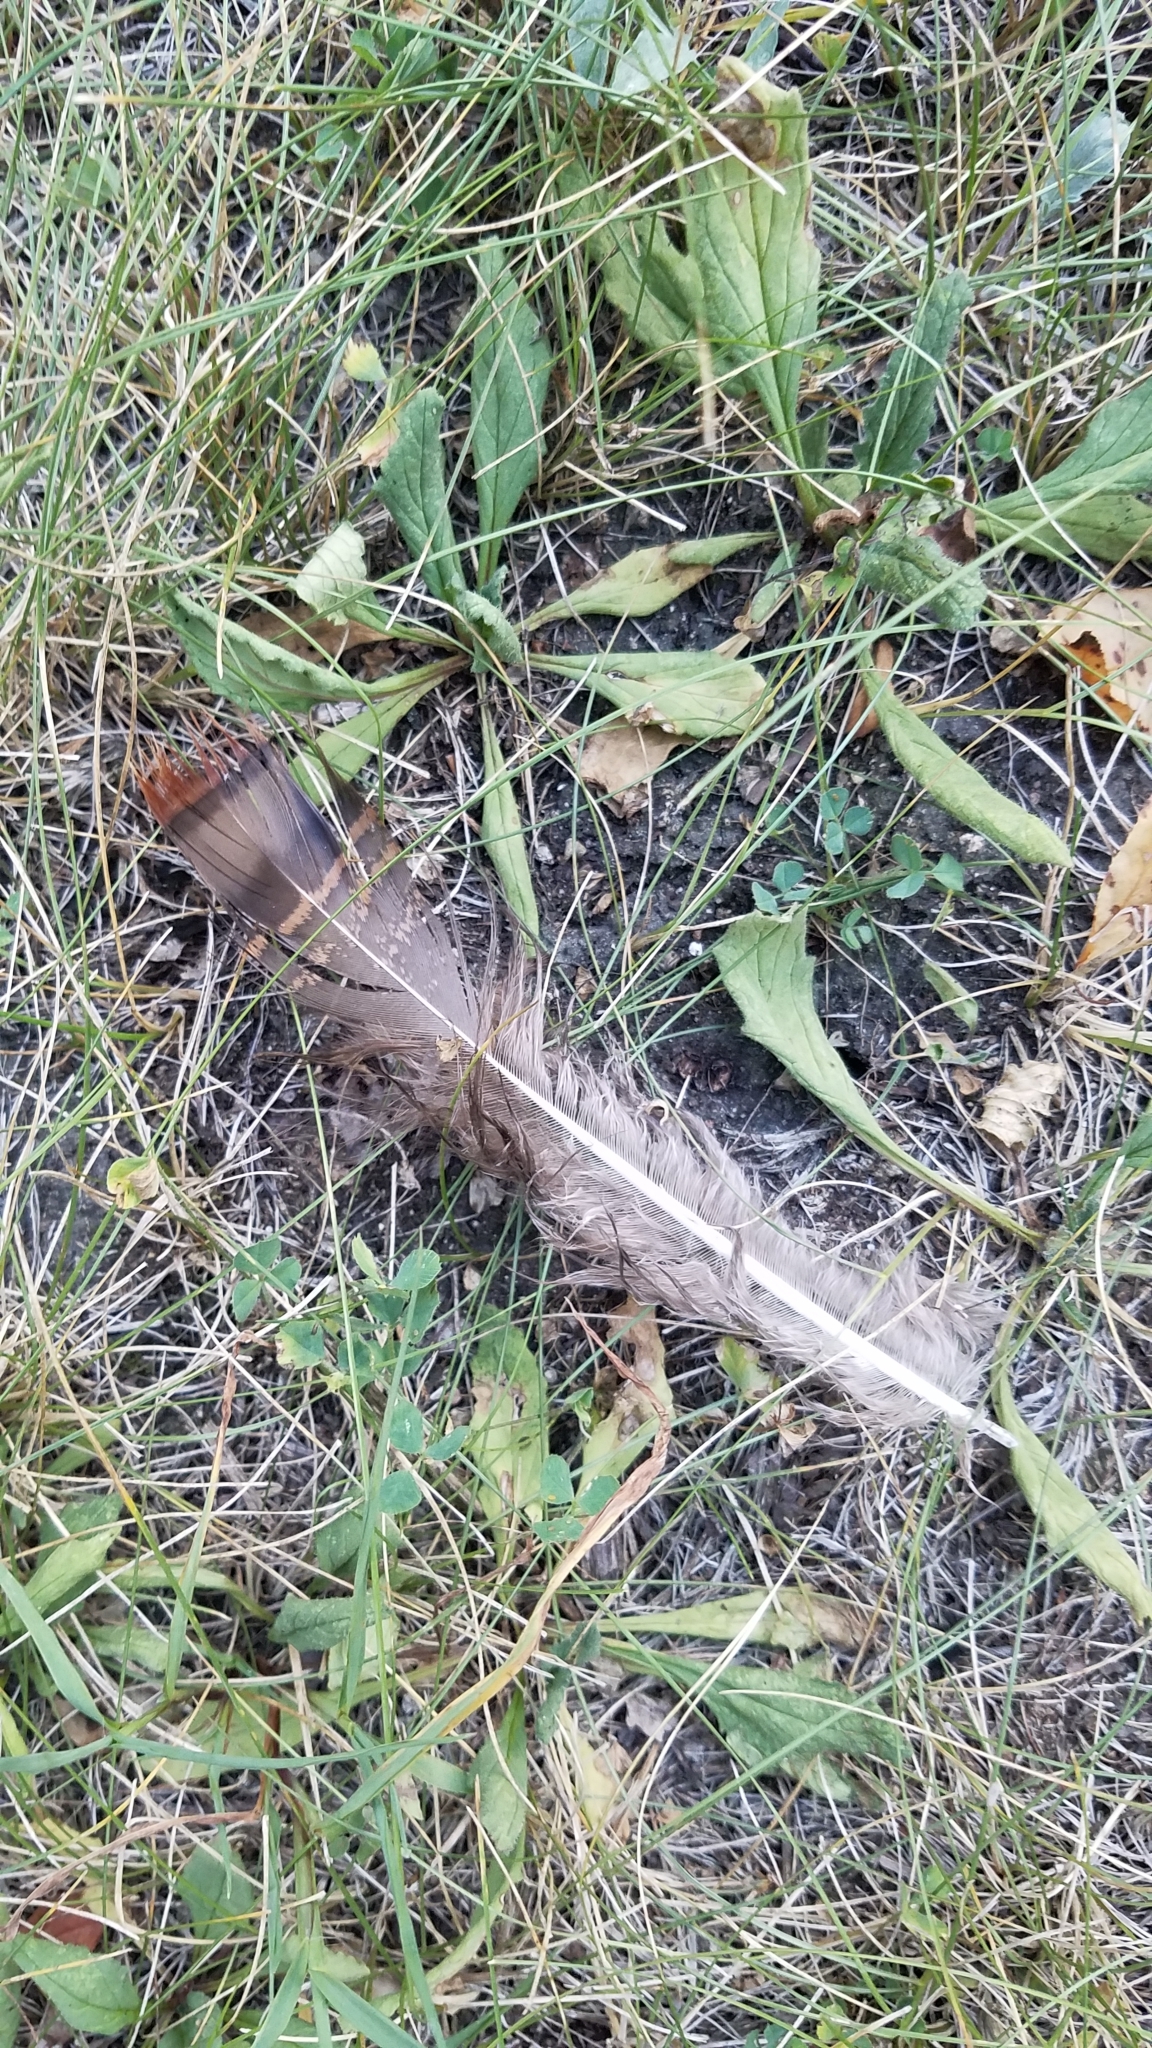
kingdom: Animalia
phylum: Chordata
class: Aves
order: Galliformes
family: Phasianidae
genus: Meleagris
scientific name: Meleagris gallopavo
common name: Wild turkey
